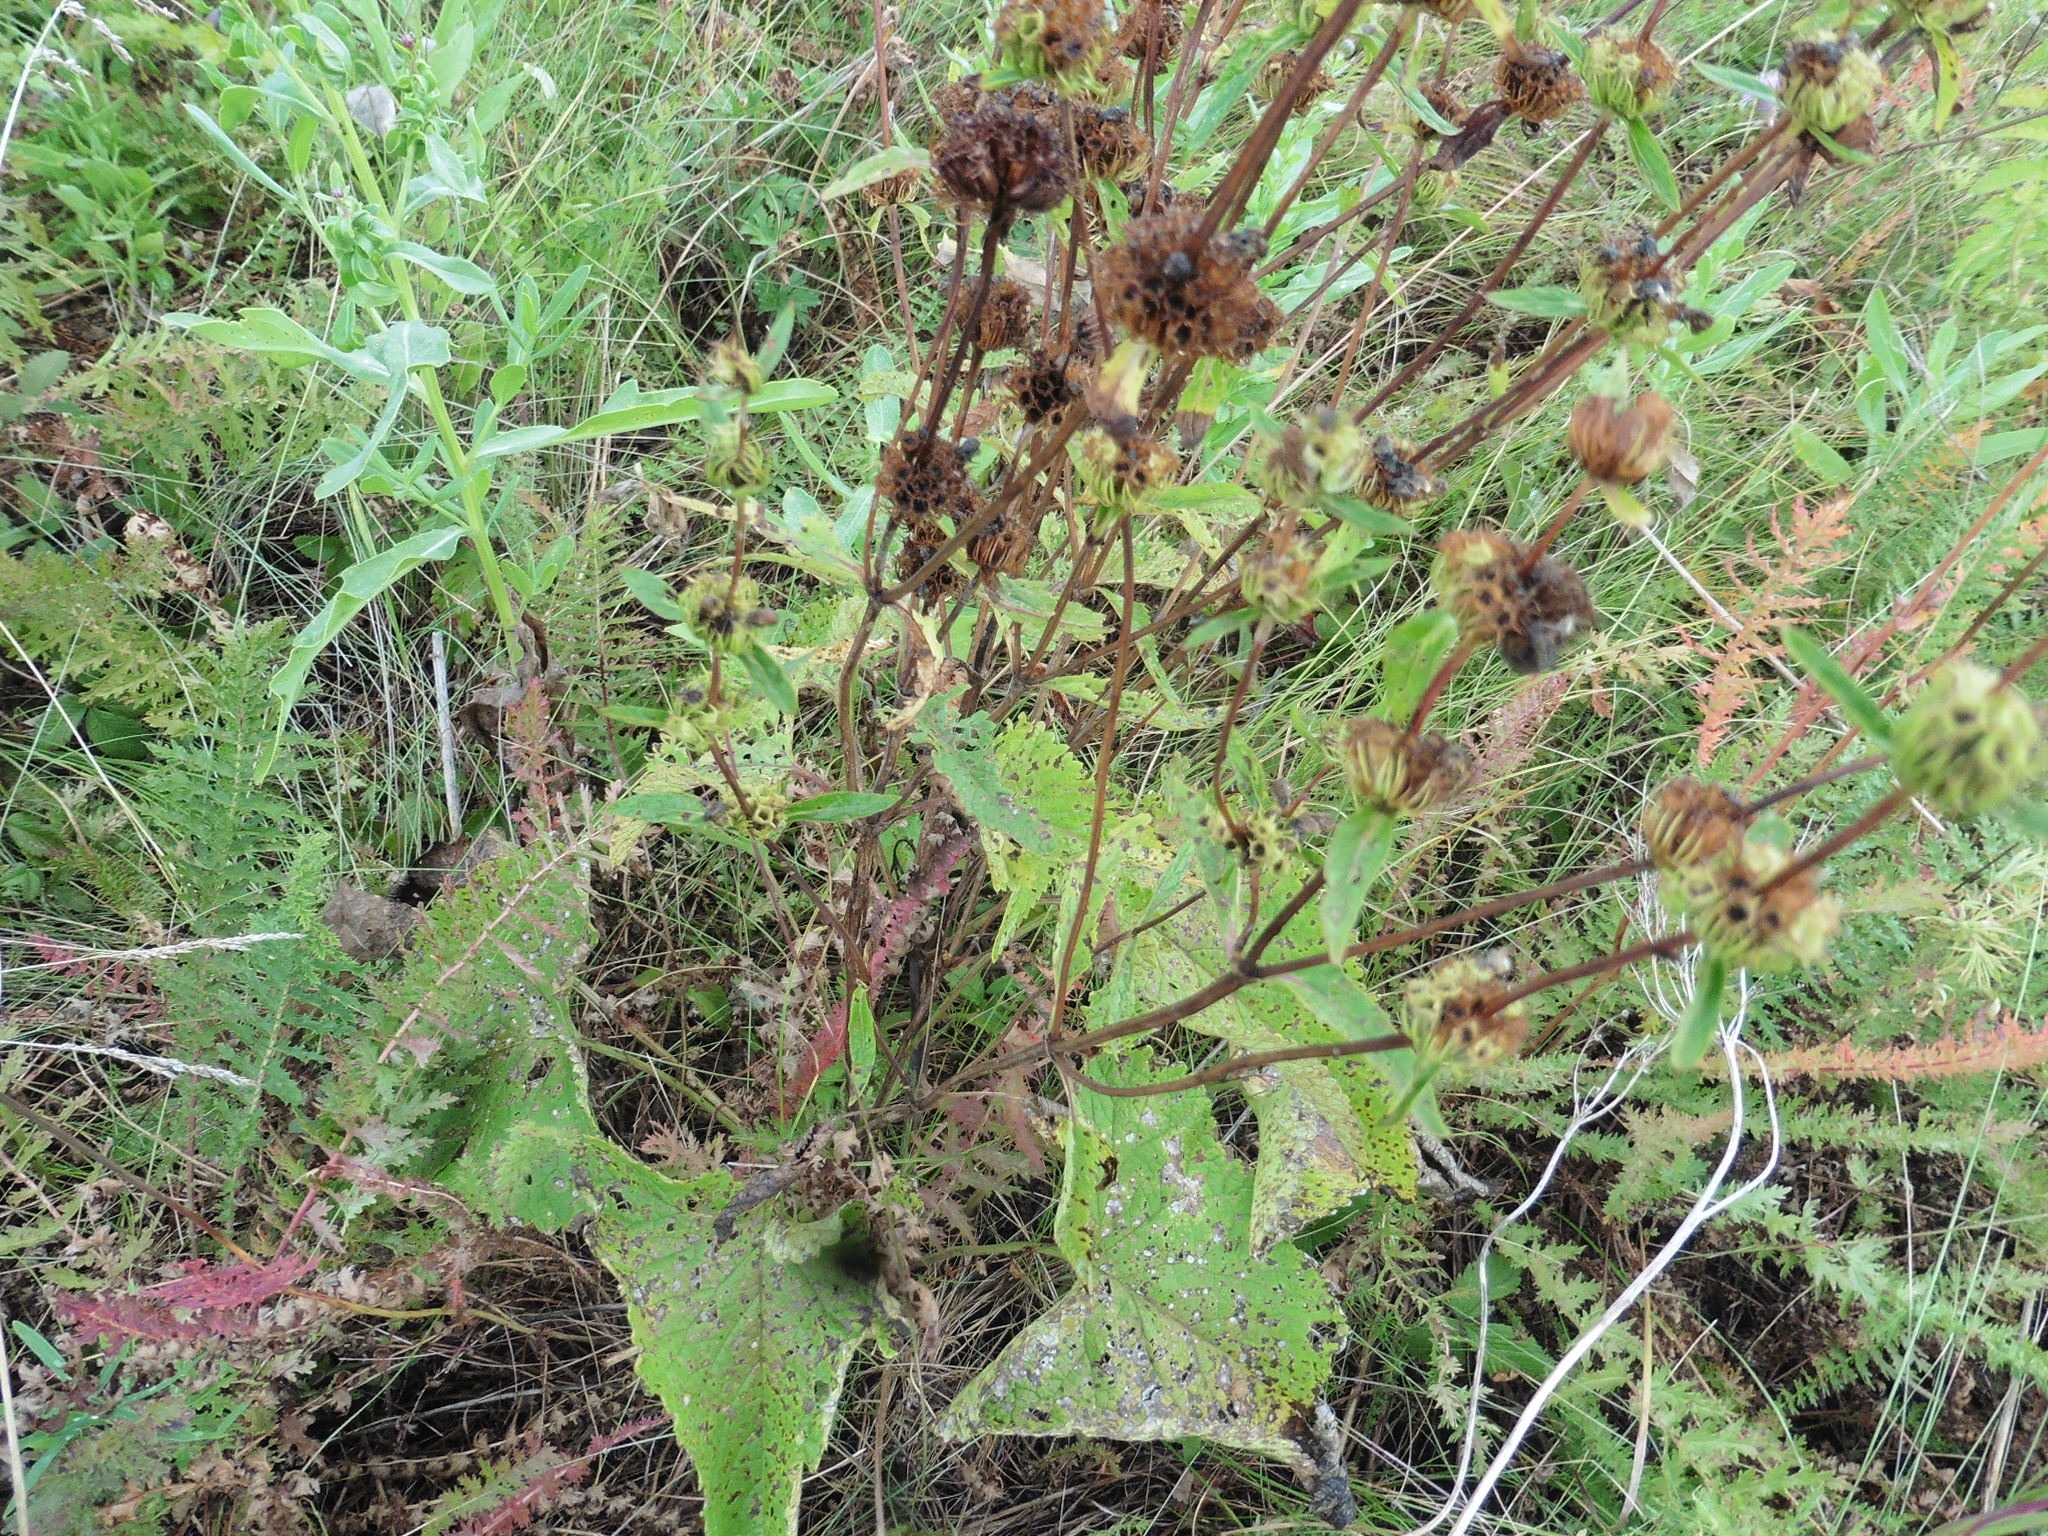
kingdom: Plantae
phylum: Tracheophyta
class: Magnoliopsida
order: Lamiales
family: Lamiaceae
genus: Phlomoides
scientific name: Phlomoides tuberosa
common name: Tuberous jerusalem sage
